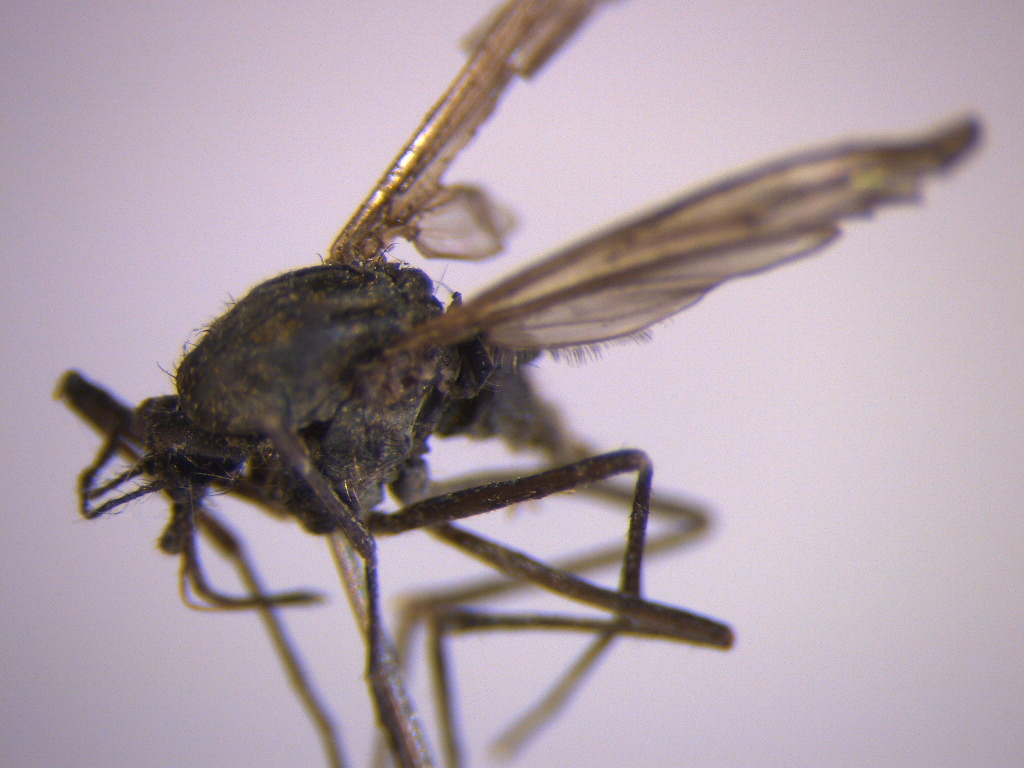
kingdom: Animalia
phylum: Arthropoda
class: Insecta
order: Diptera
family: Culicidae
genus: Opifex
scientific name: Opifex fuscus
